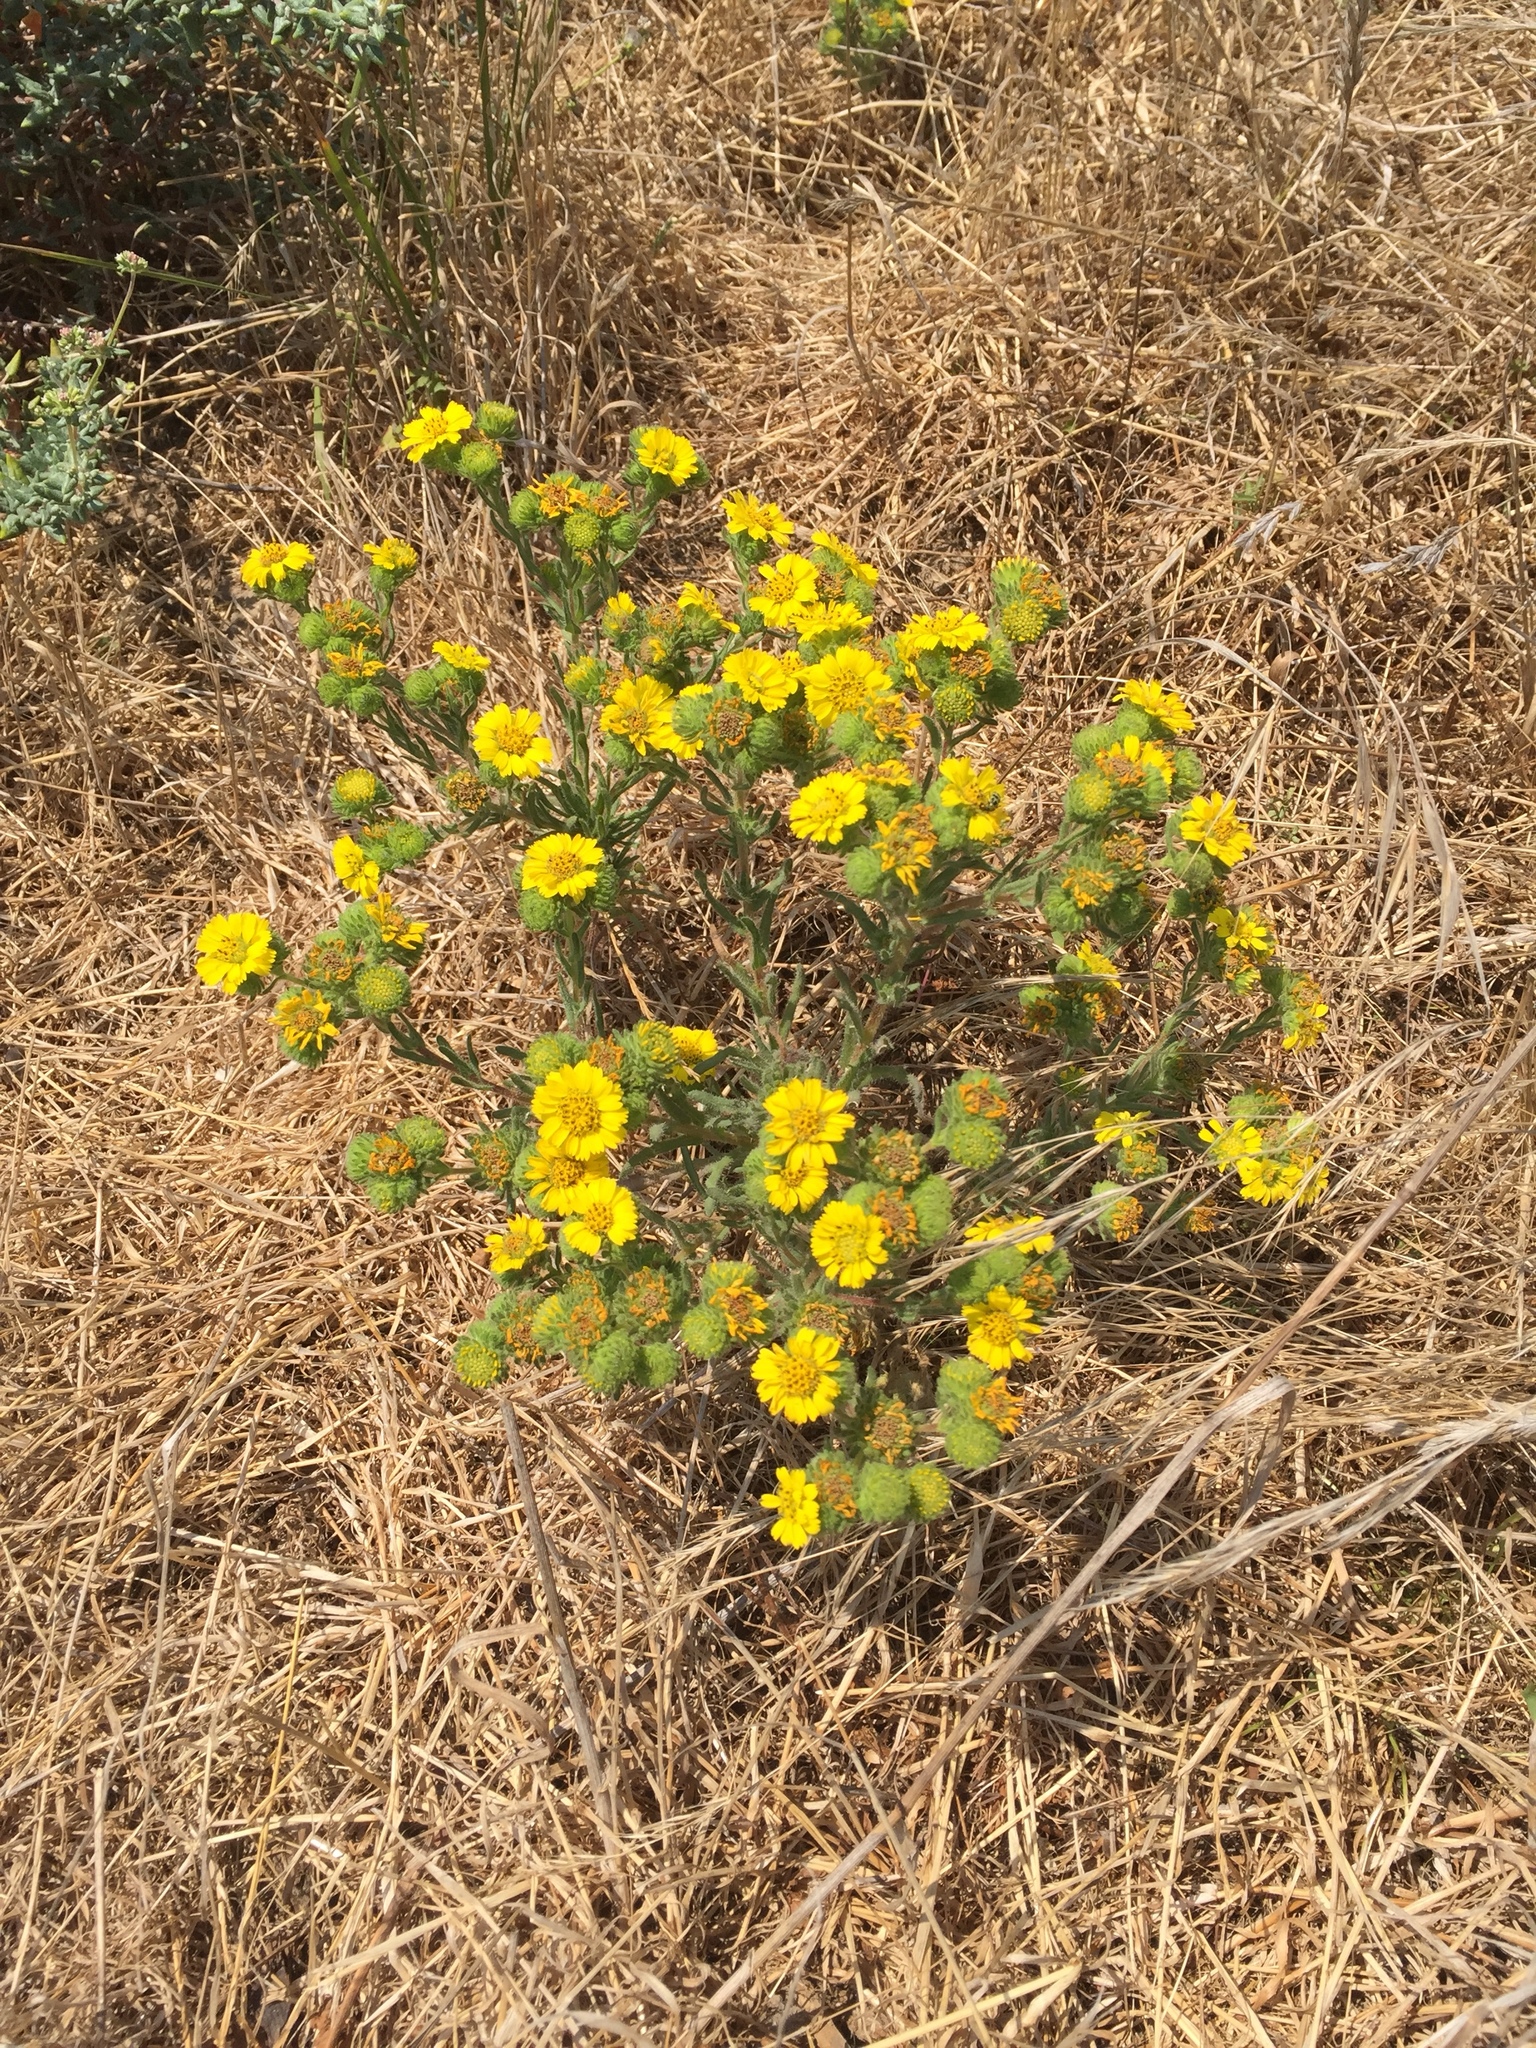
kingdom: Plantae
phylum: Tracheophyta
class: Magnoliopsida
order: Asterales
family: Asteraceae
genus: Deinandra
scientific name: Deinandra corymbosa
